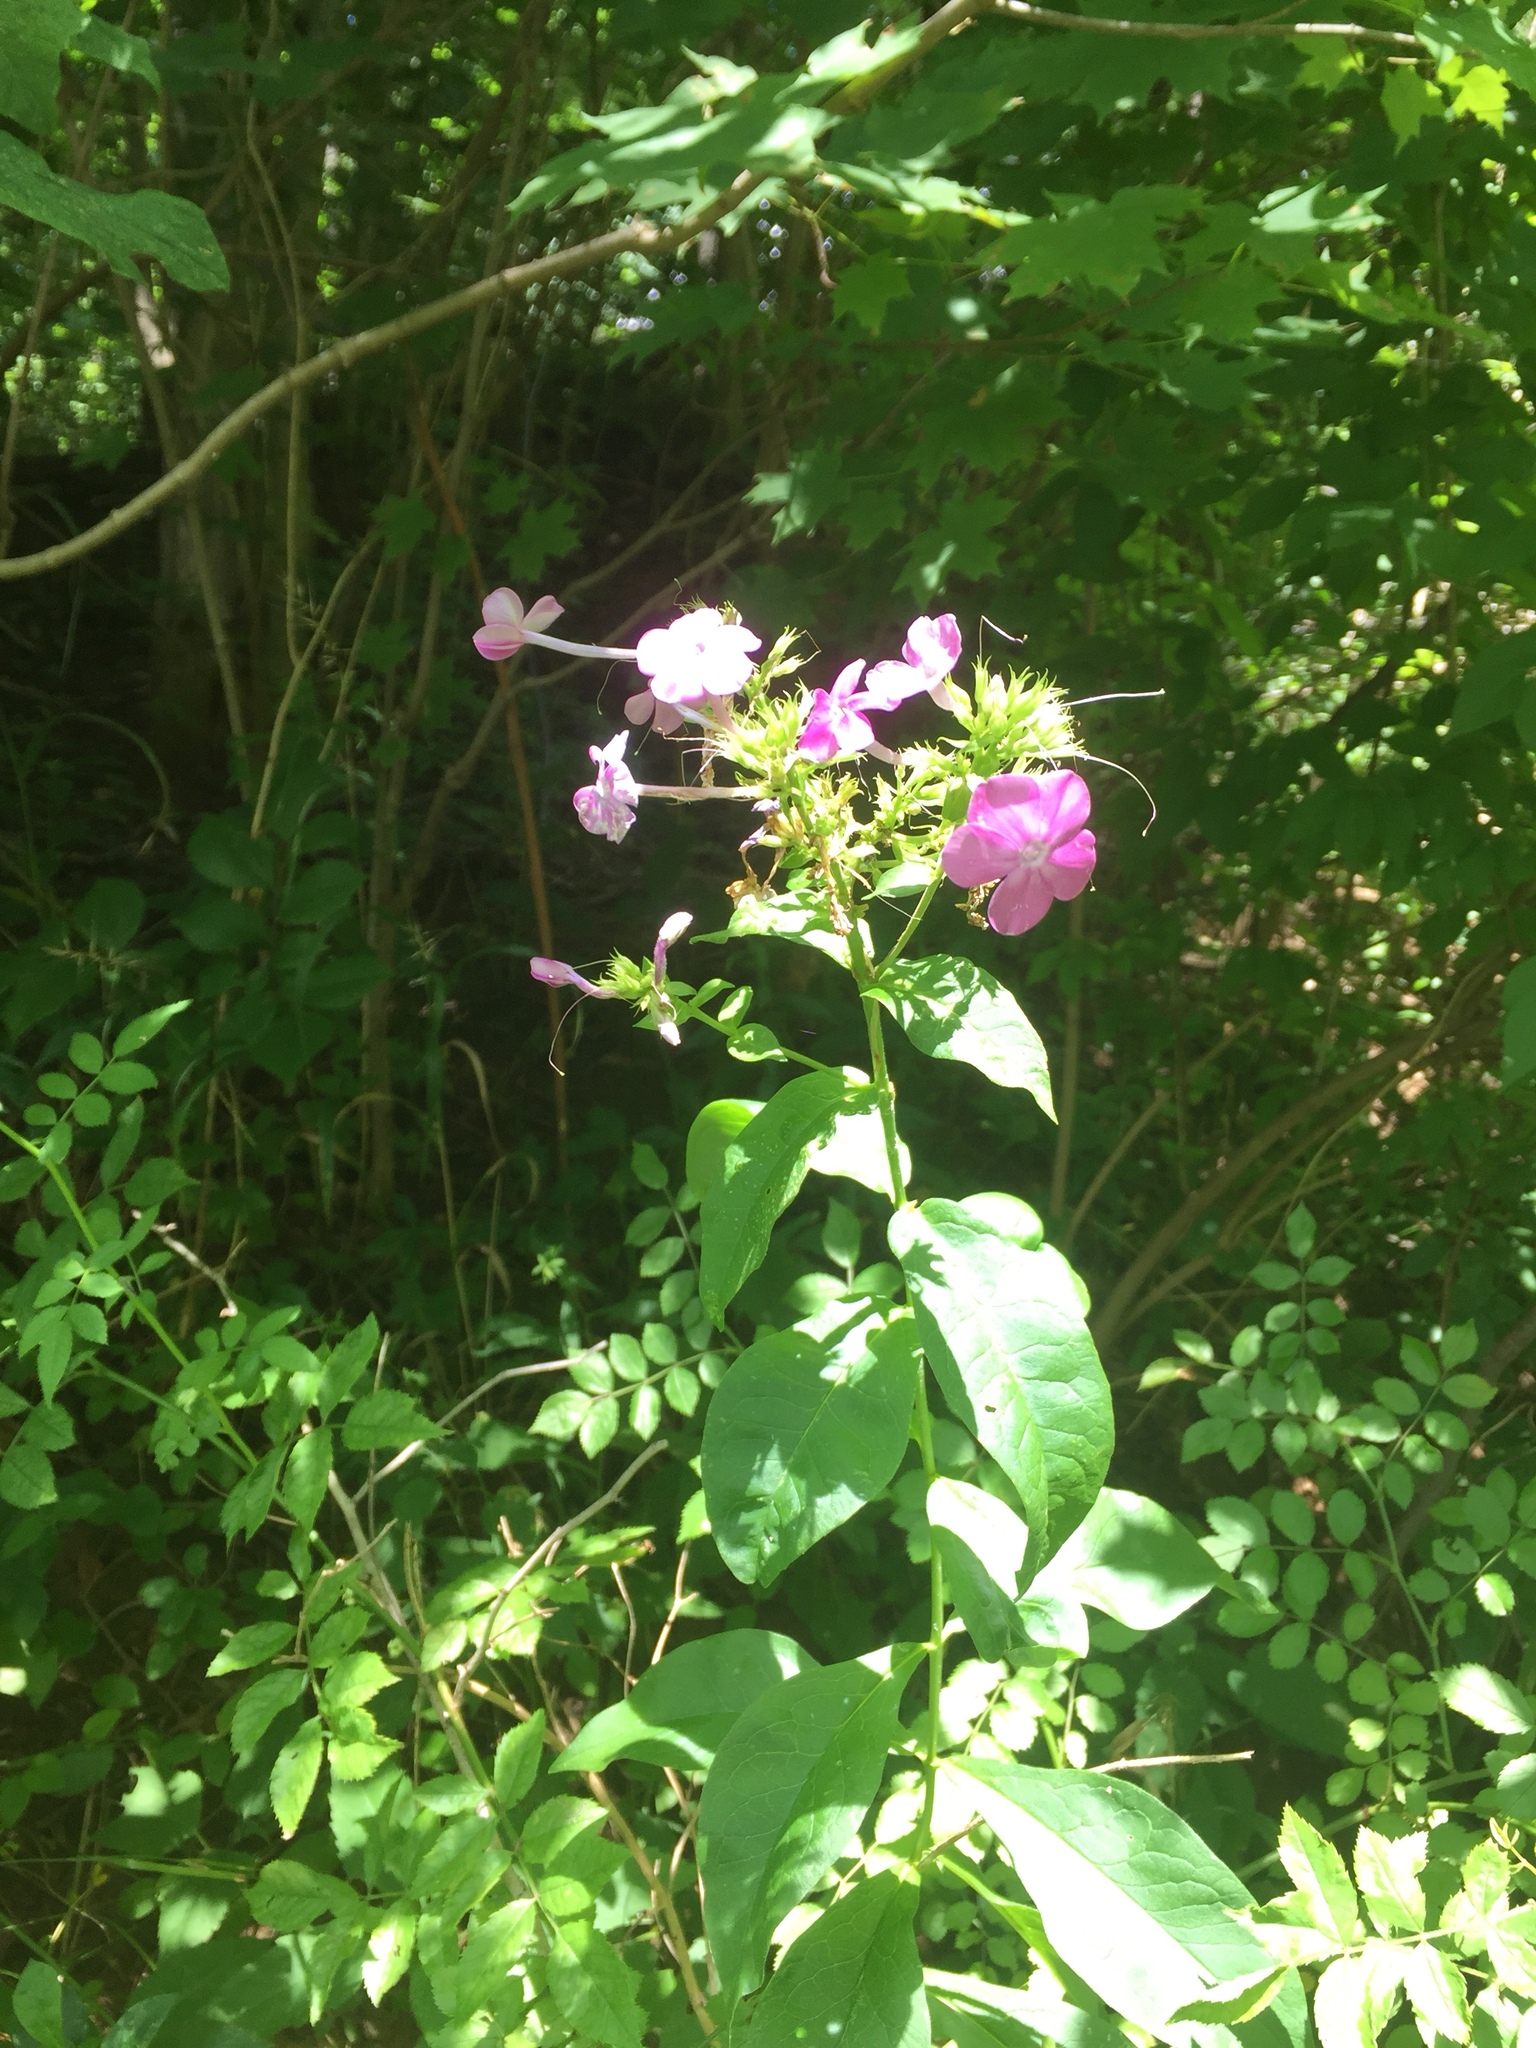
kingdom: Plantae
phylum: Tracheophyta
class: Magnoliopsida
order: Ericales
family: Polemoniaceae
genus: Phlox
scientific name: Phlox paniculata
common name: Fall phlox
